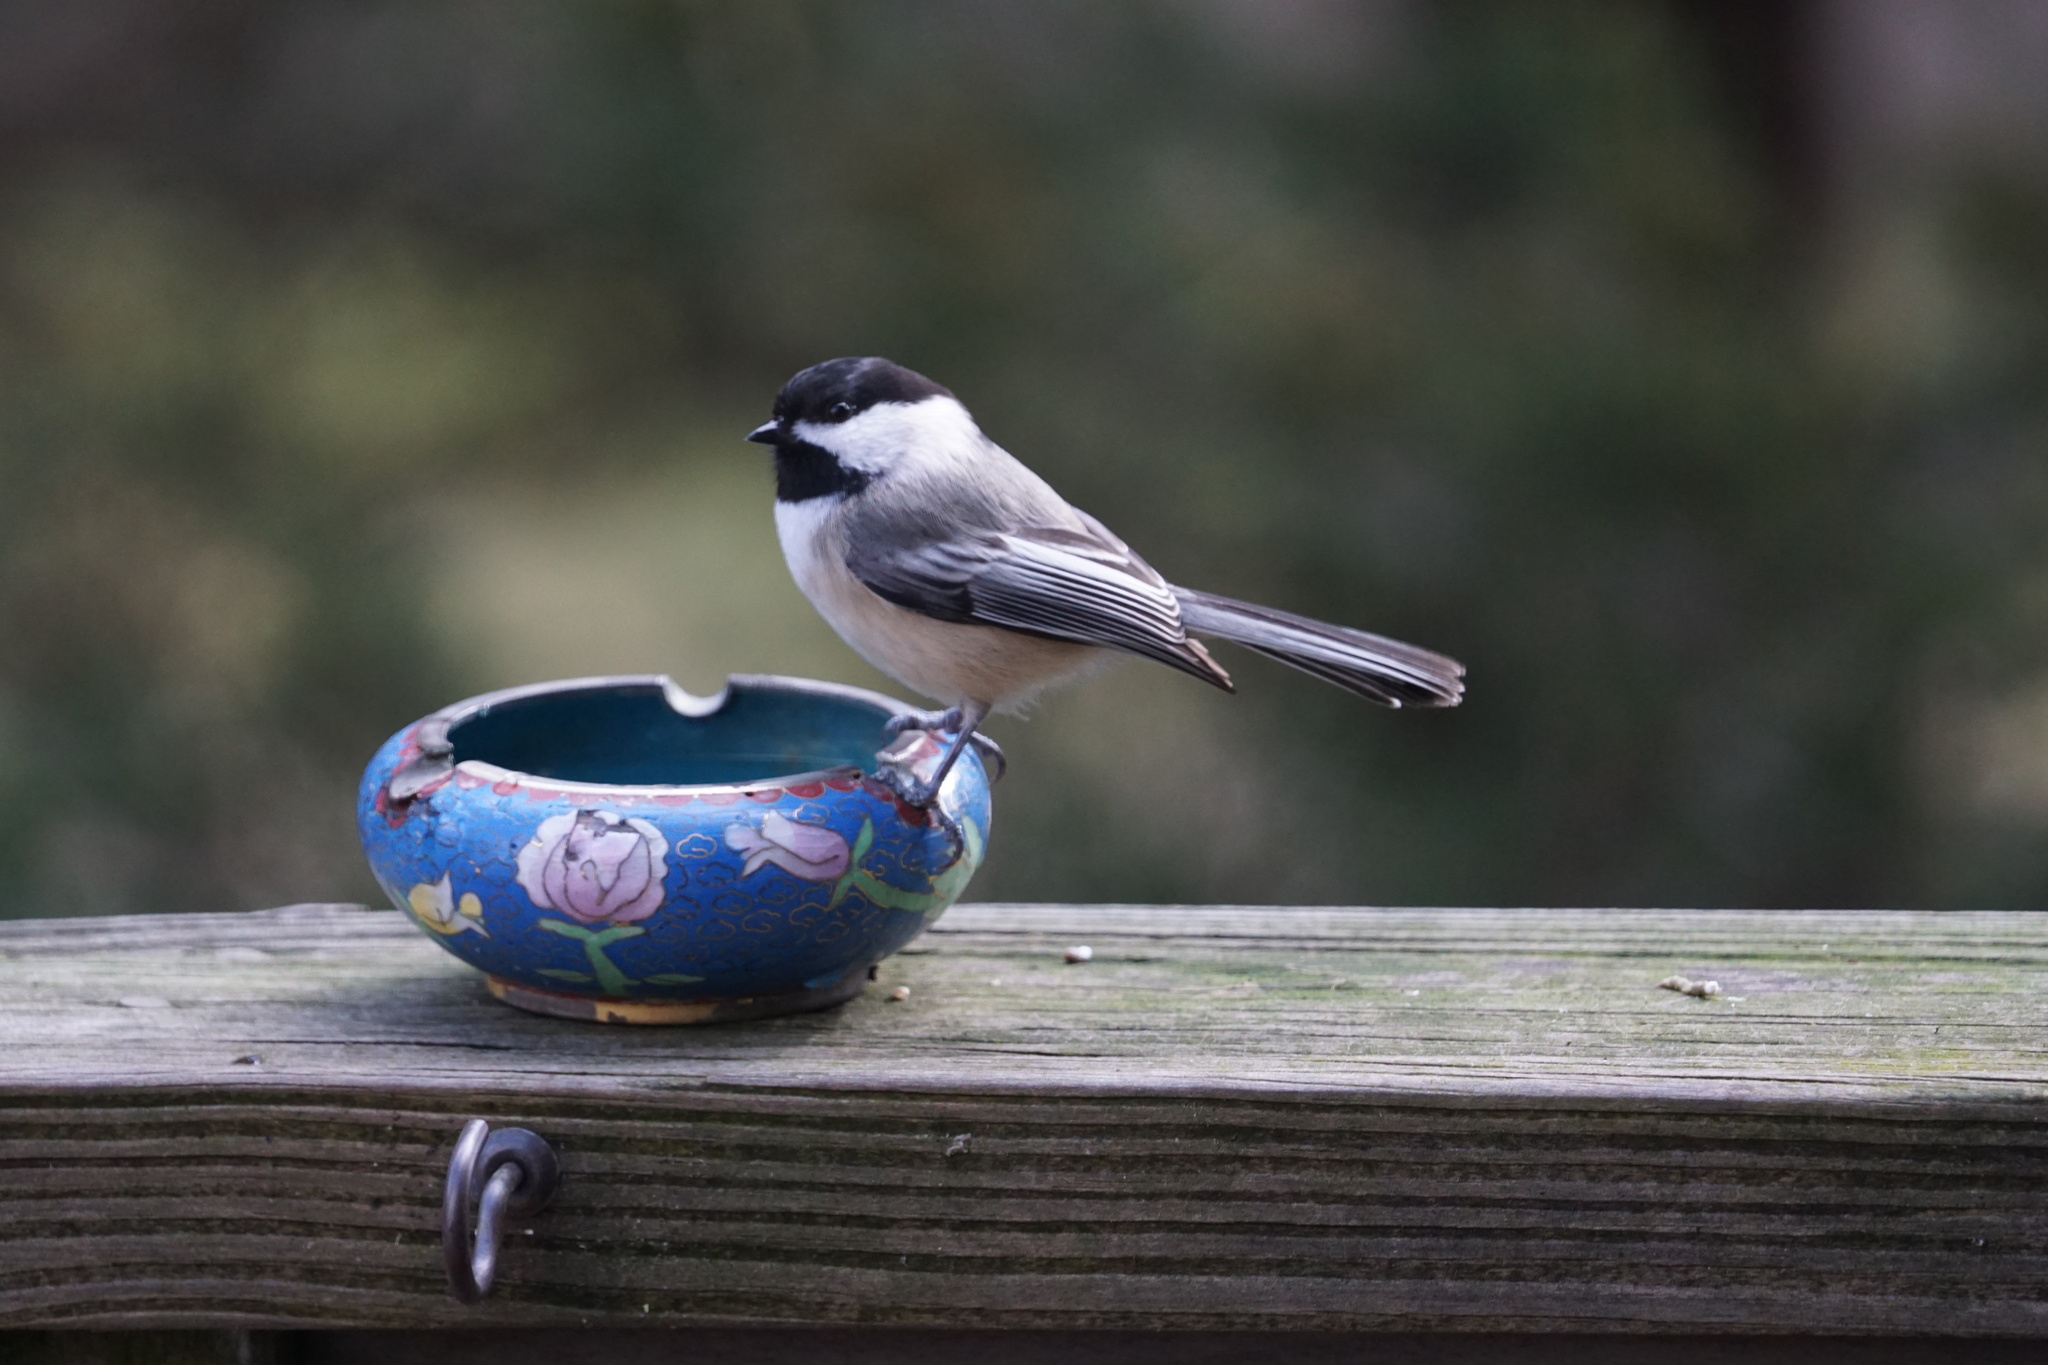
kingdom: Animalia
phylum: Chordata
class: Aves
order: Passeriformes
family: Paridae
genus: Poecile
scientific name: Poecile atricapillus
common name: Black-capped chickadee
